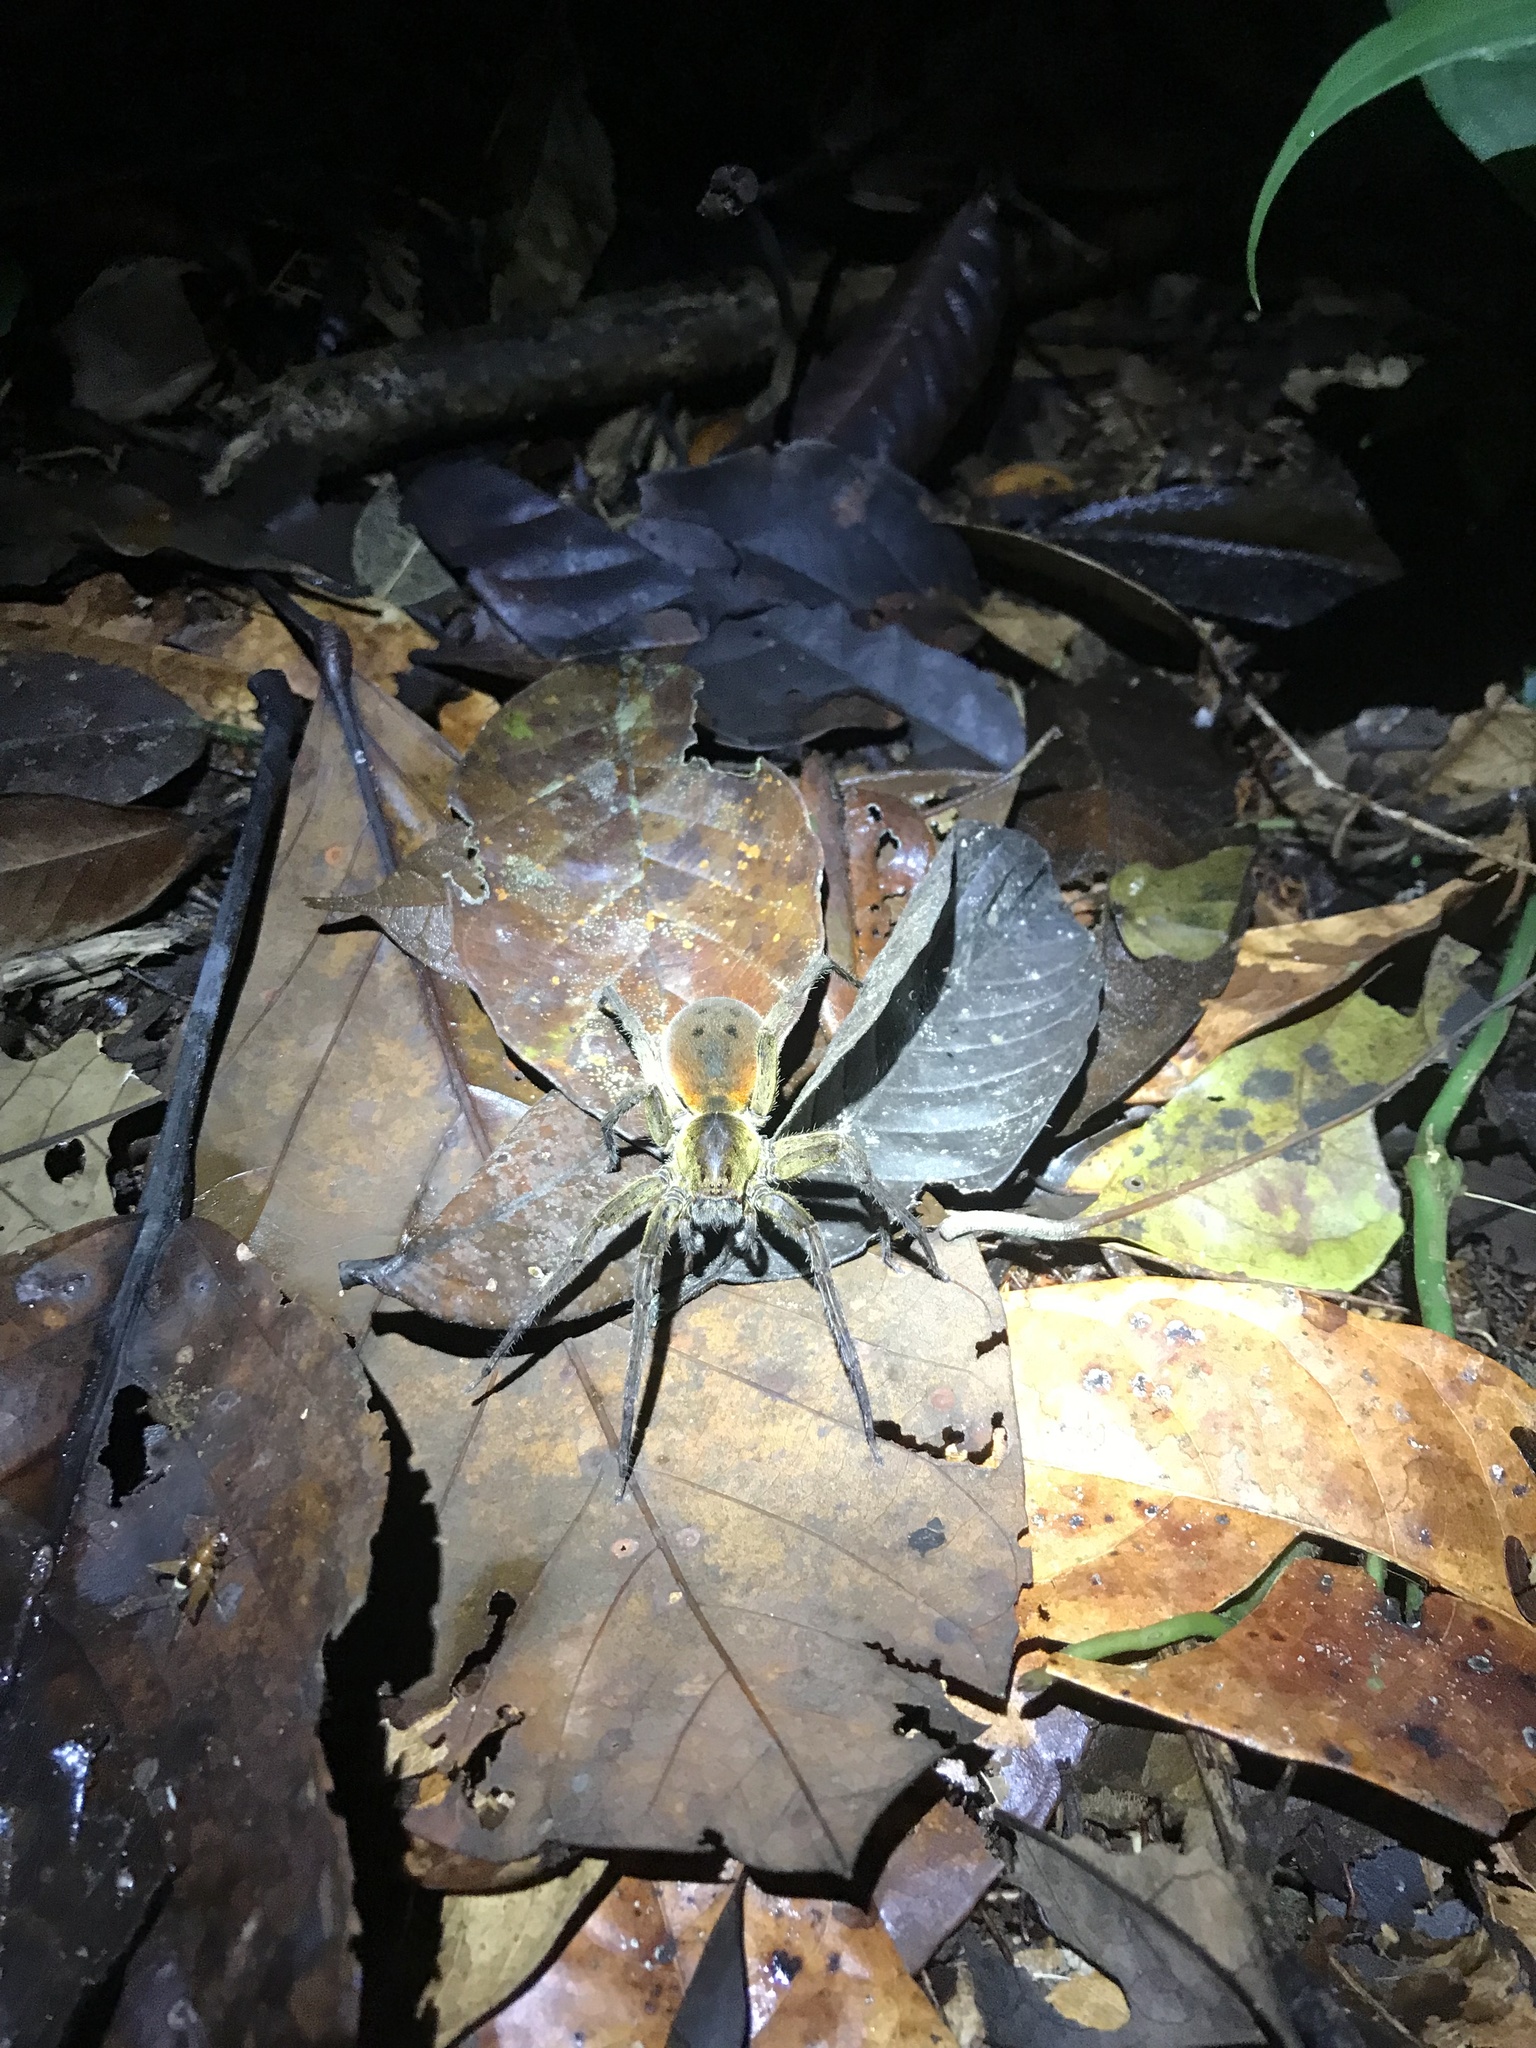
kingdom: Animalia
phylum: Arthropoda
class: Arachnida
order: Araneae
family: Ctenidae
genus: Ctenus
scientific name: Ctenus villasboasi
